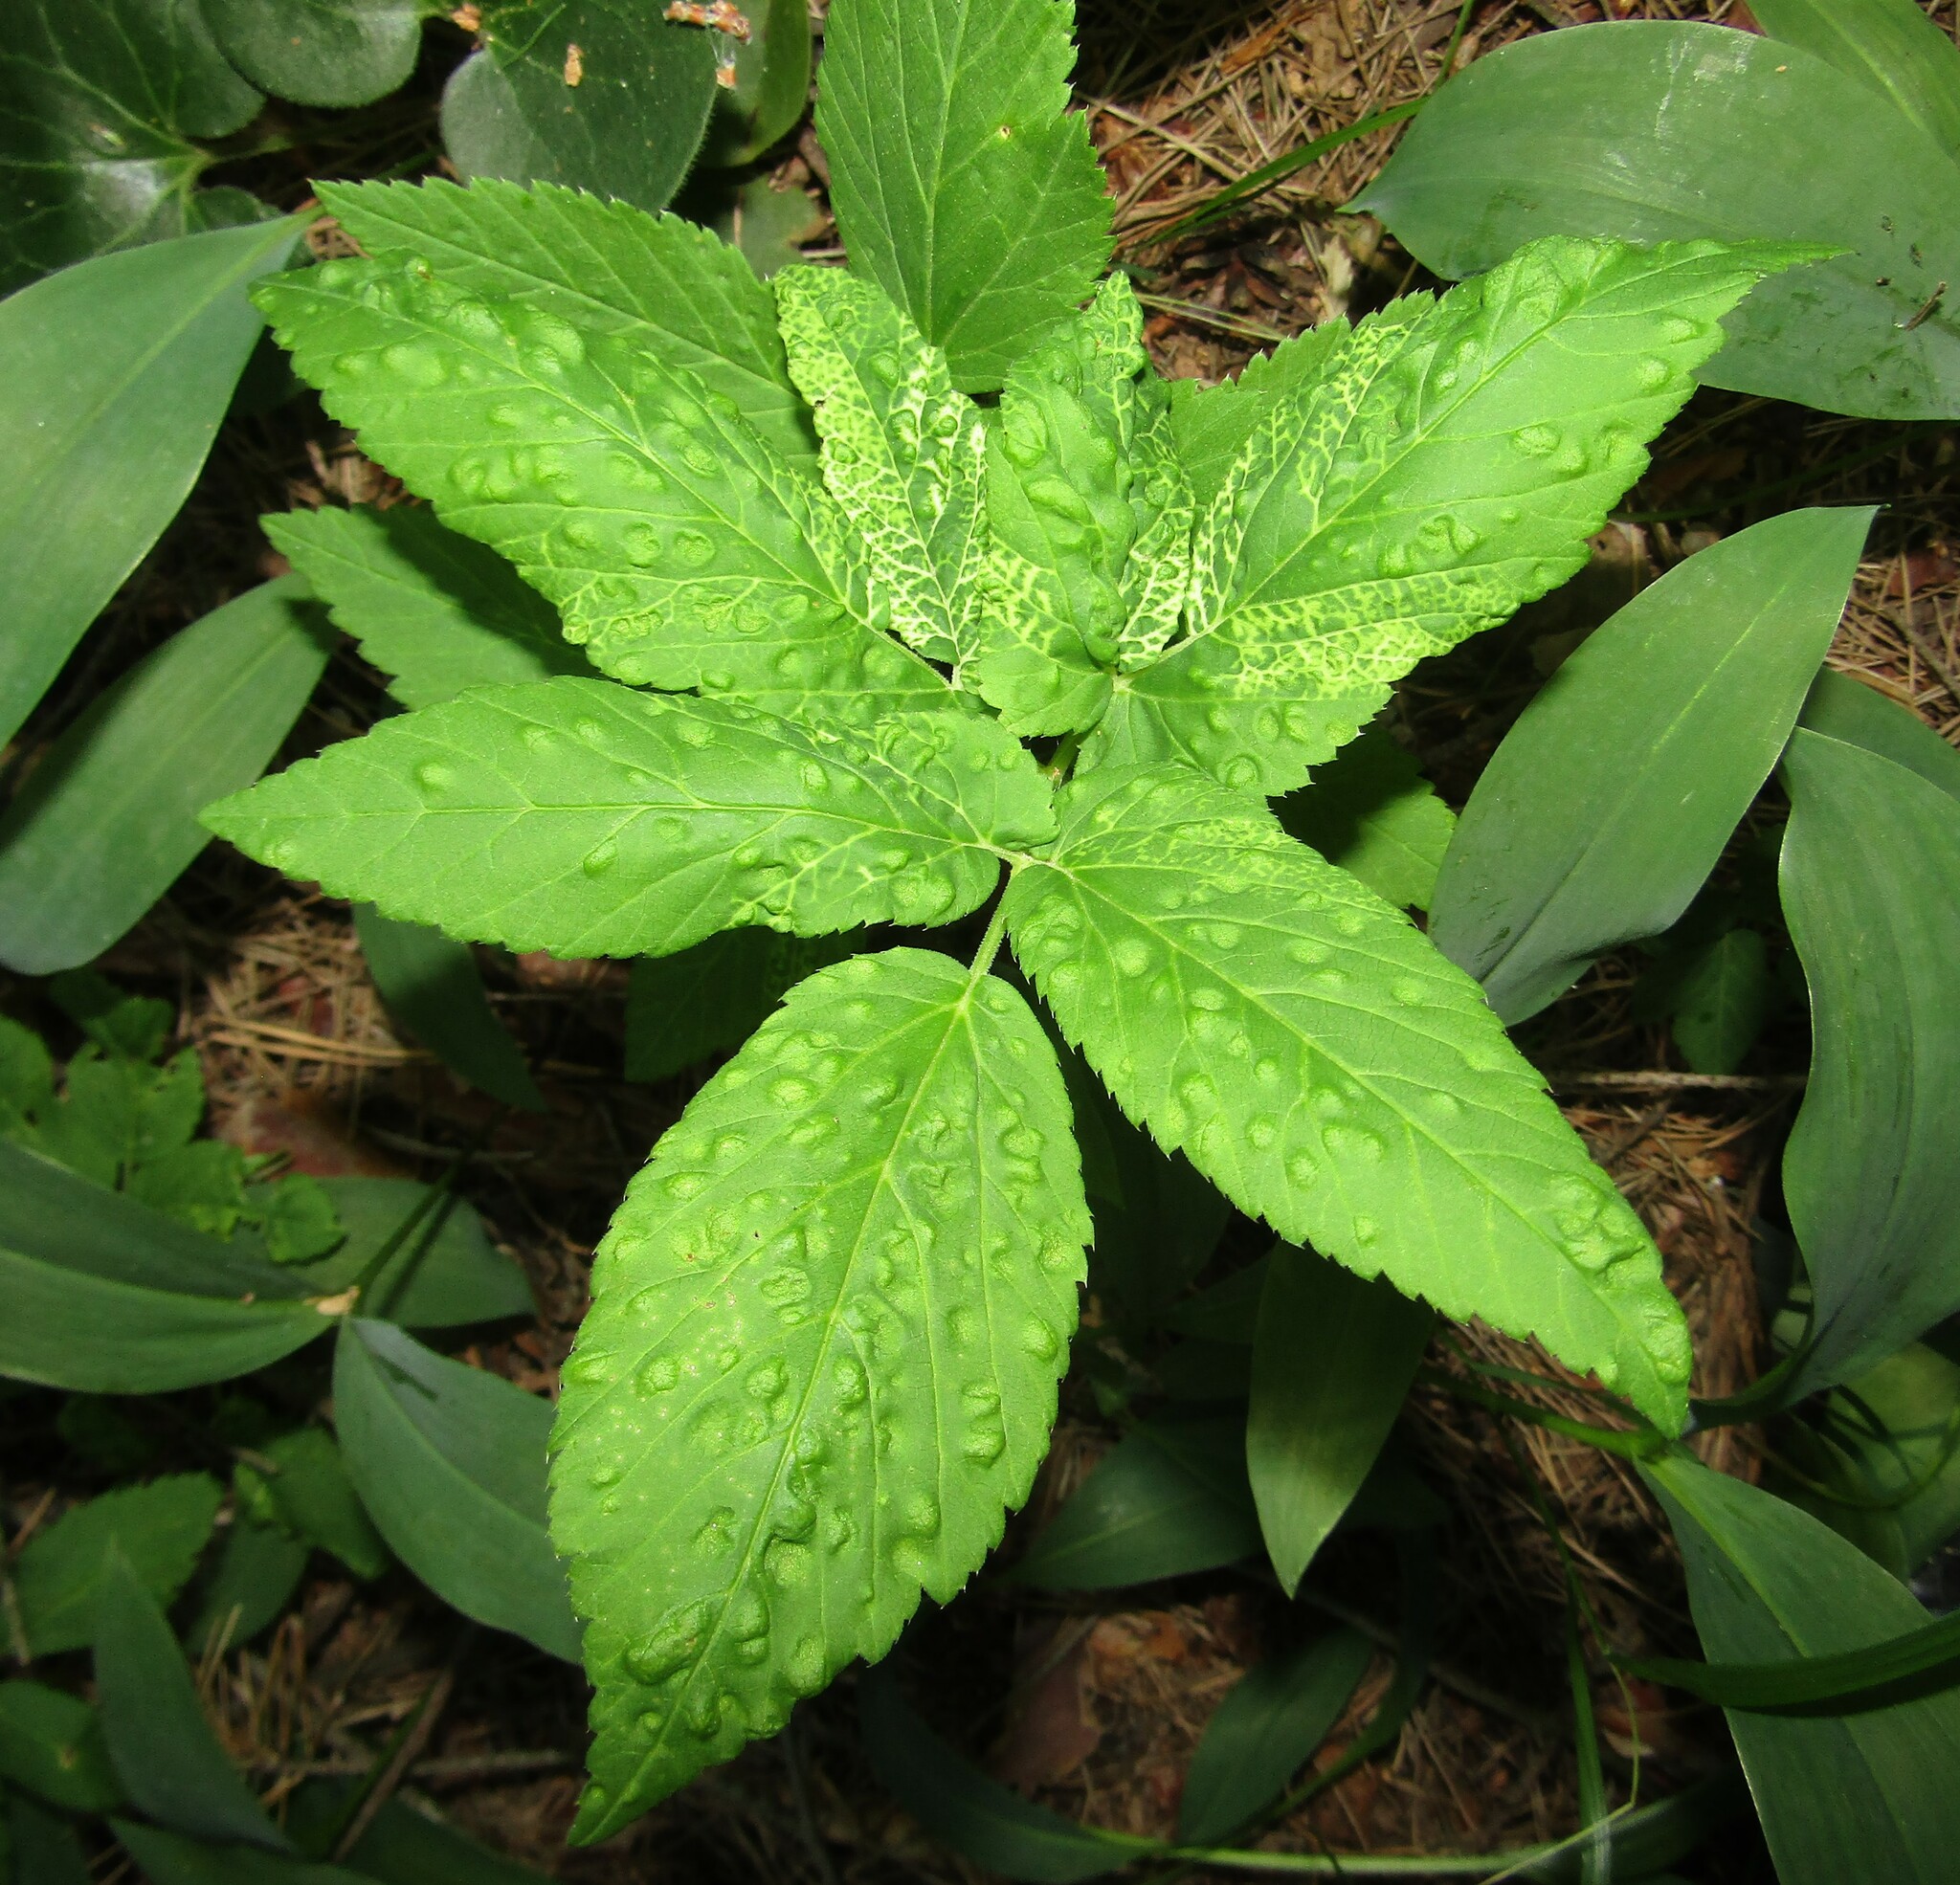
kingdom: Plantae
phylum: Tracheophyta
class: Magnoliopsida
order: Apiales
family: Apiaceae
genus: Aegopodium
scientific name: Aegopodium podagraria
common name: Ground-elder
